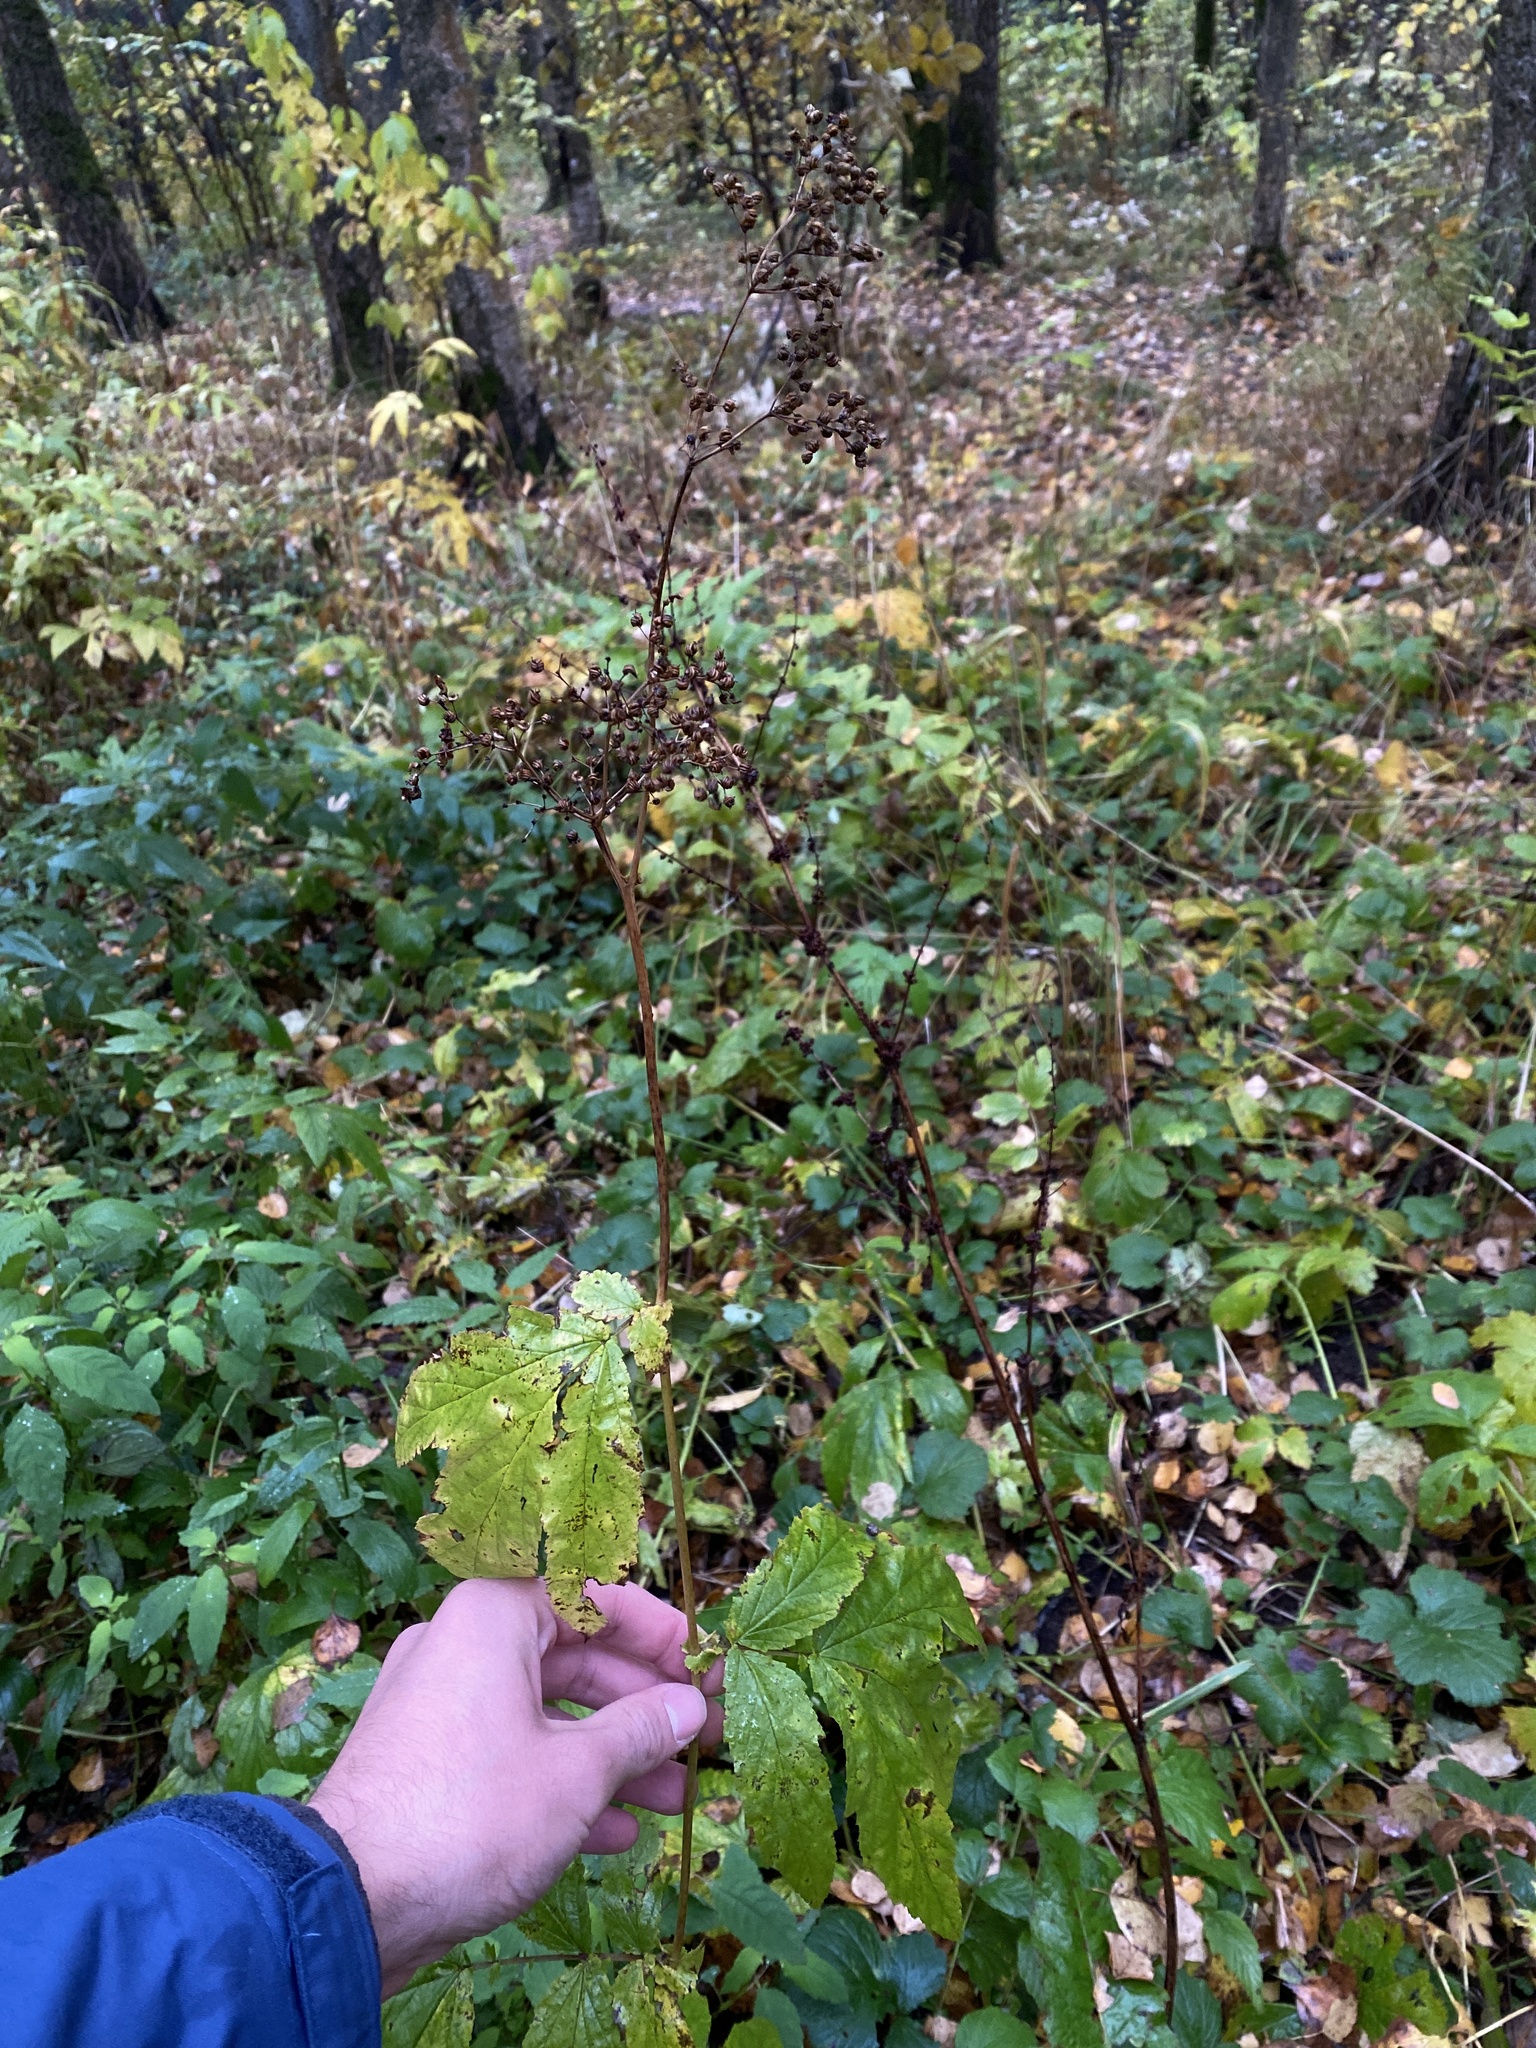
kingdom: Plantae
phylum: Tracheophyta
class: Magnoliopsida
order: Rosales
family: Rosaceae
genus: Filipendula
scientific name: Filipendula ulmaria
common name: Meadowsweet
